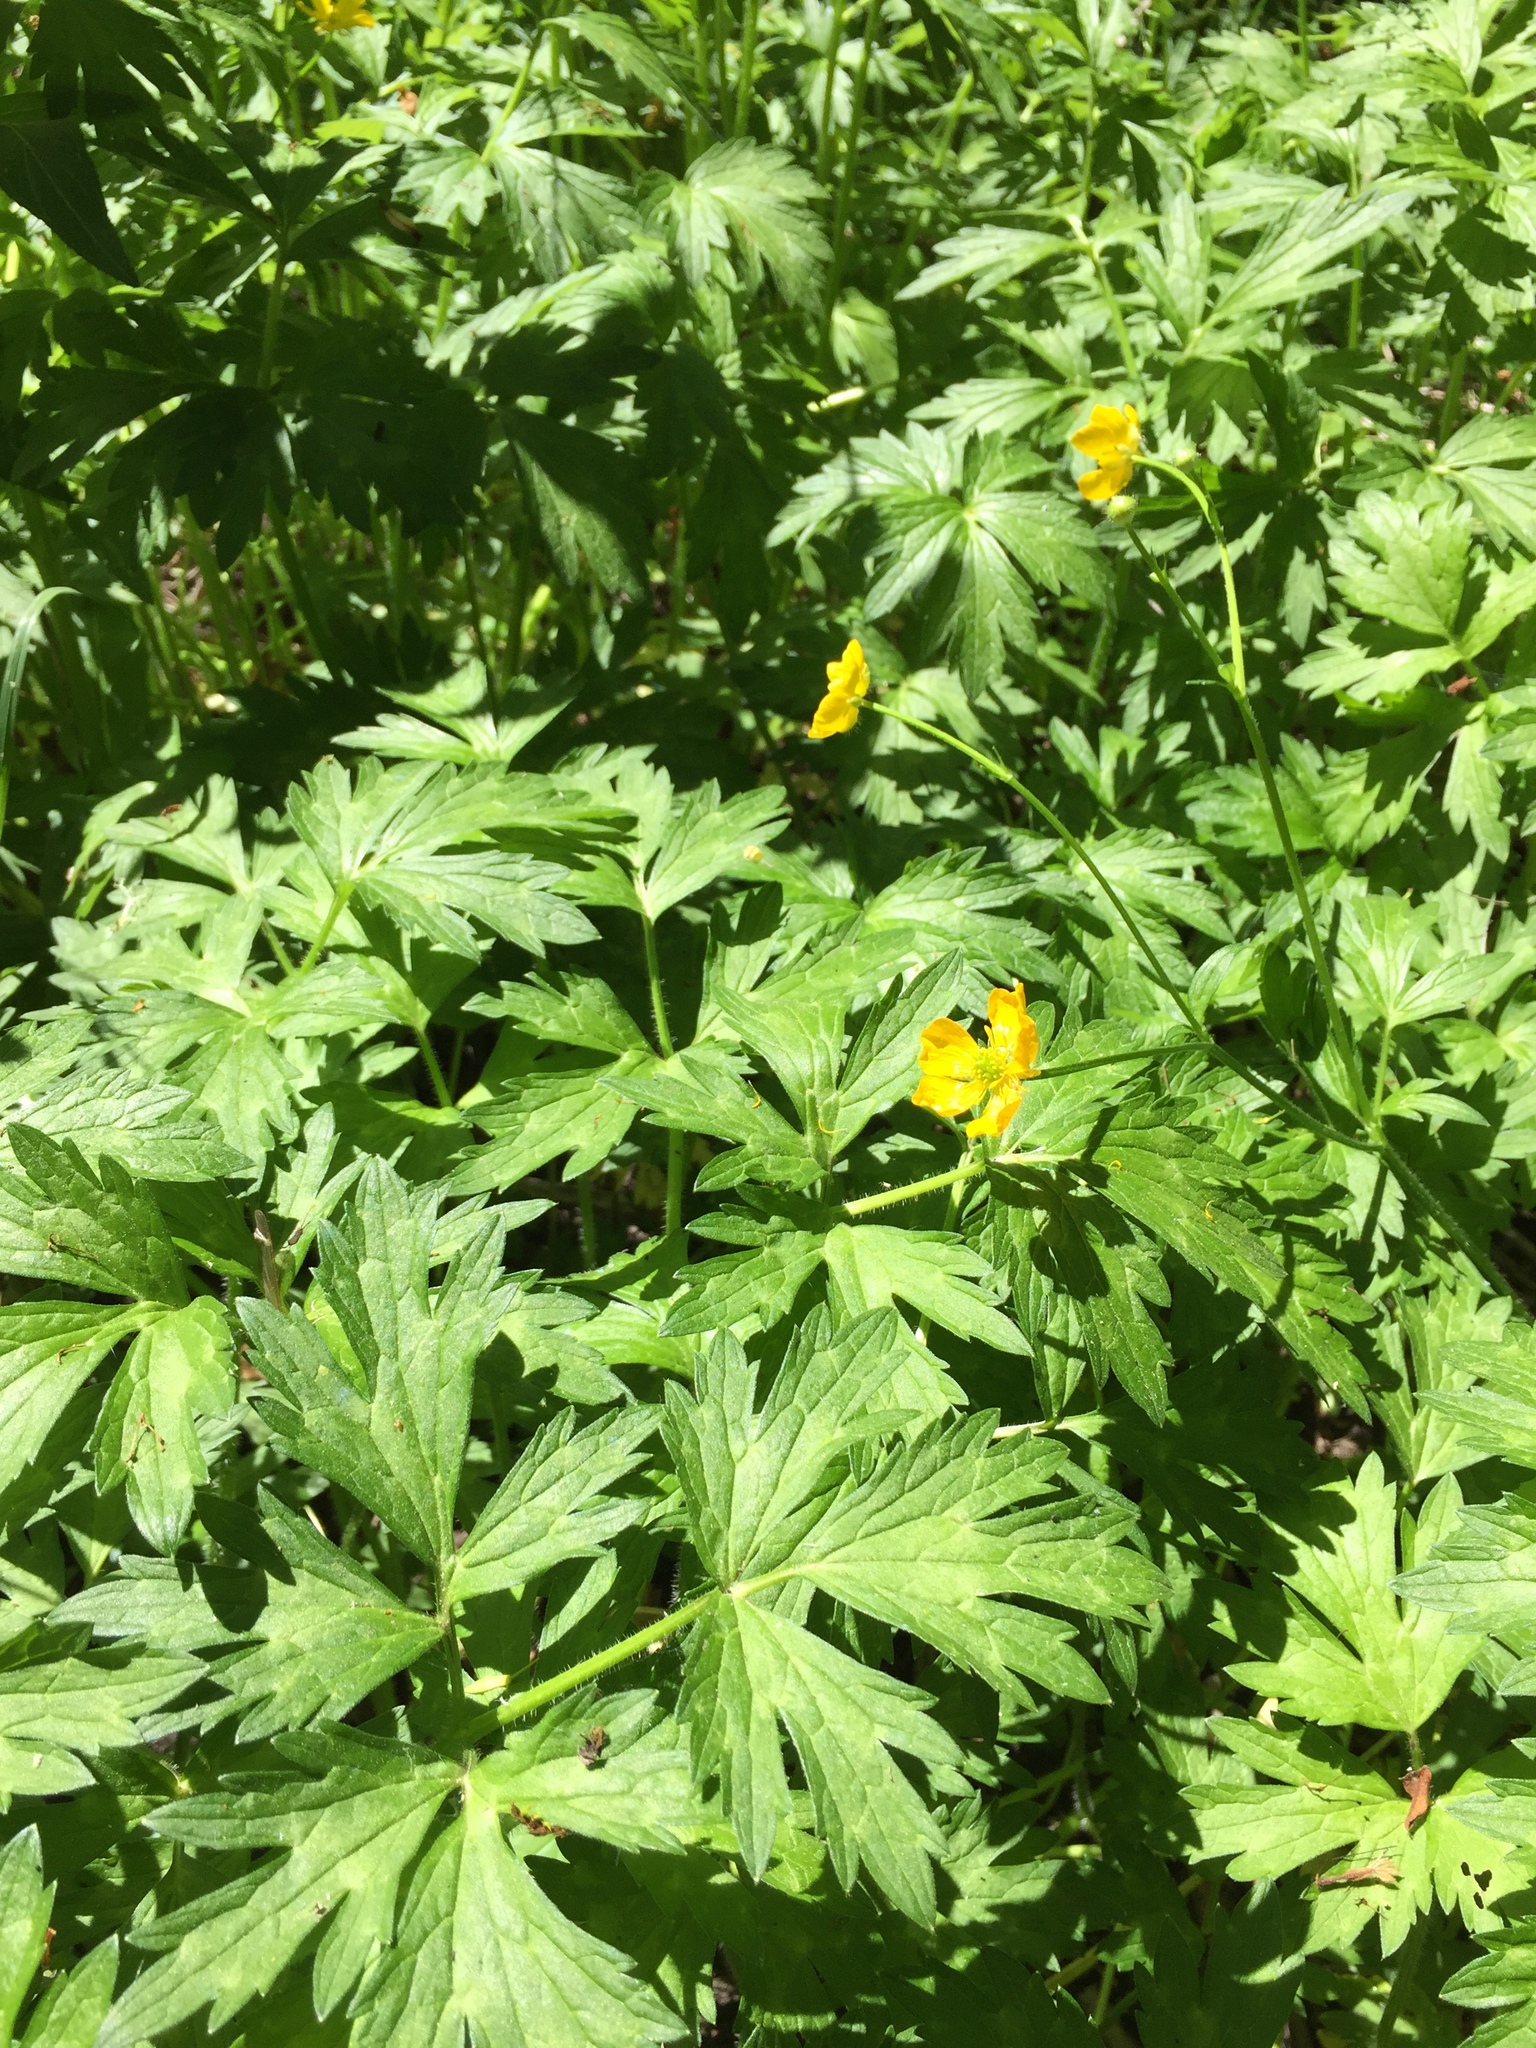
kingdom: Plantae
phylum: Tracheophyta
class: Magnoliopsida
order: Ranunculales
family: Ranunculaceae
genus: Ranunculus
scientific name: Ranunculus repens
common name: Creeping buttercup
